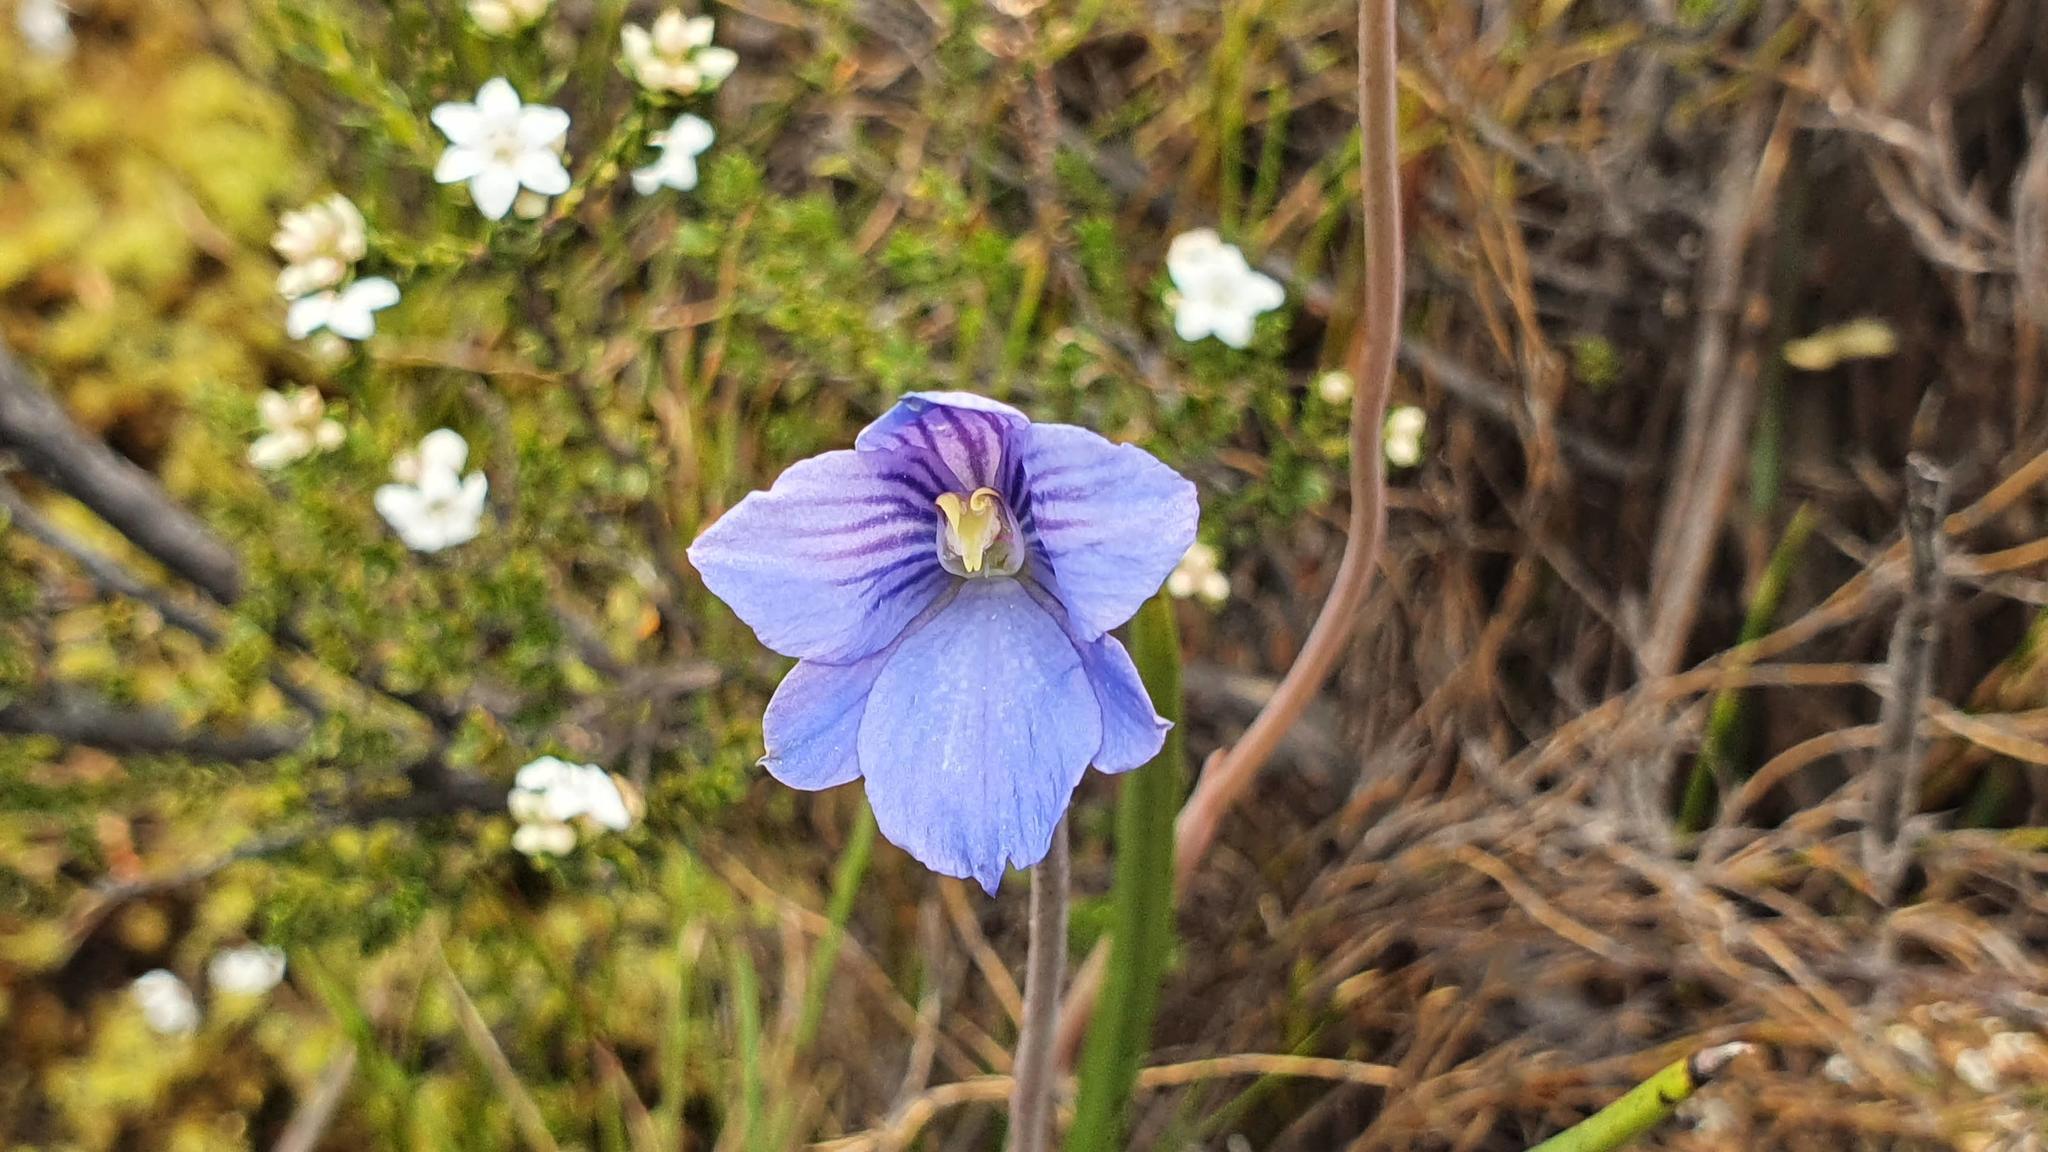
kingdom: Plantae
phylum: Tracheophyta
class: Liliopsida
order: Asparagales
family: Orchidaceae
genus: Thelymitra
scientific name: Thelymitra cyanea
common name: Blue sun-orchid
